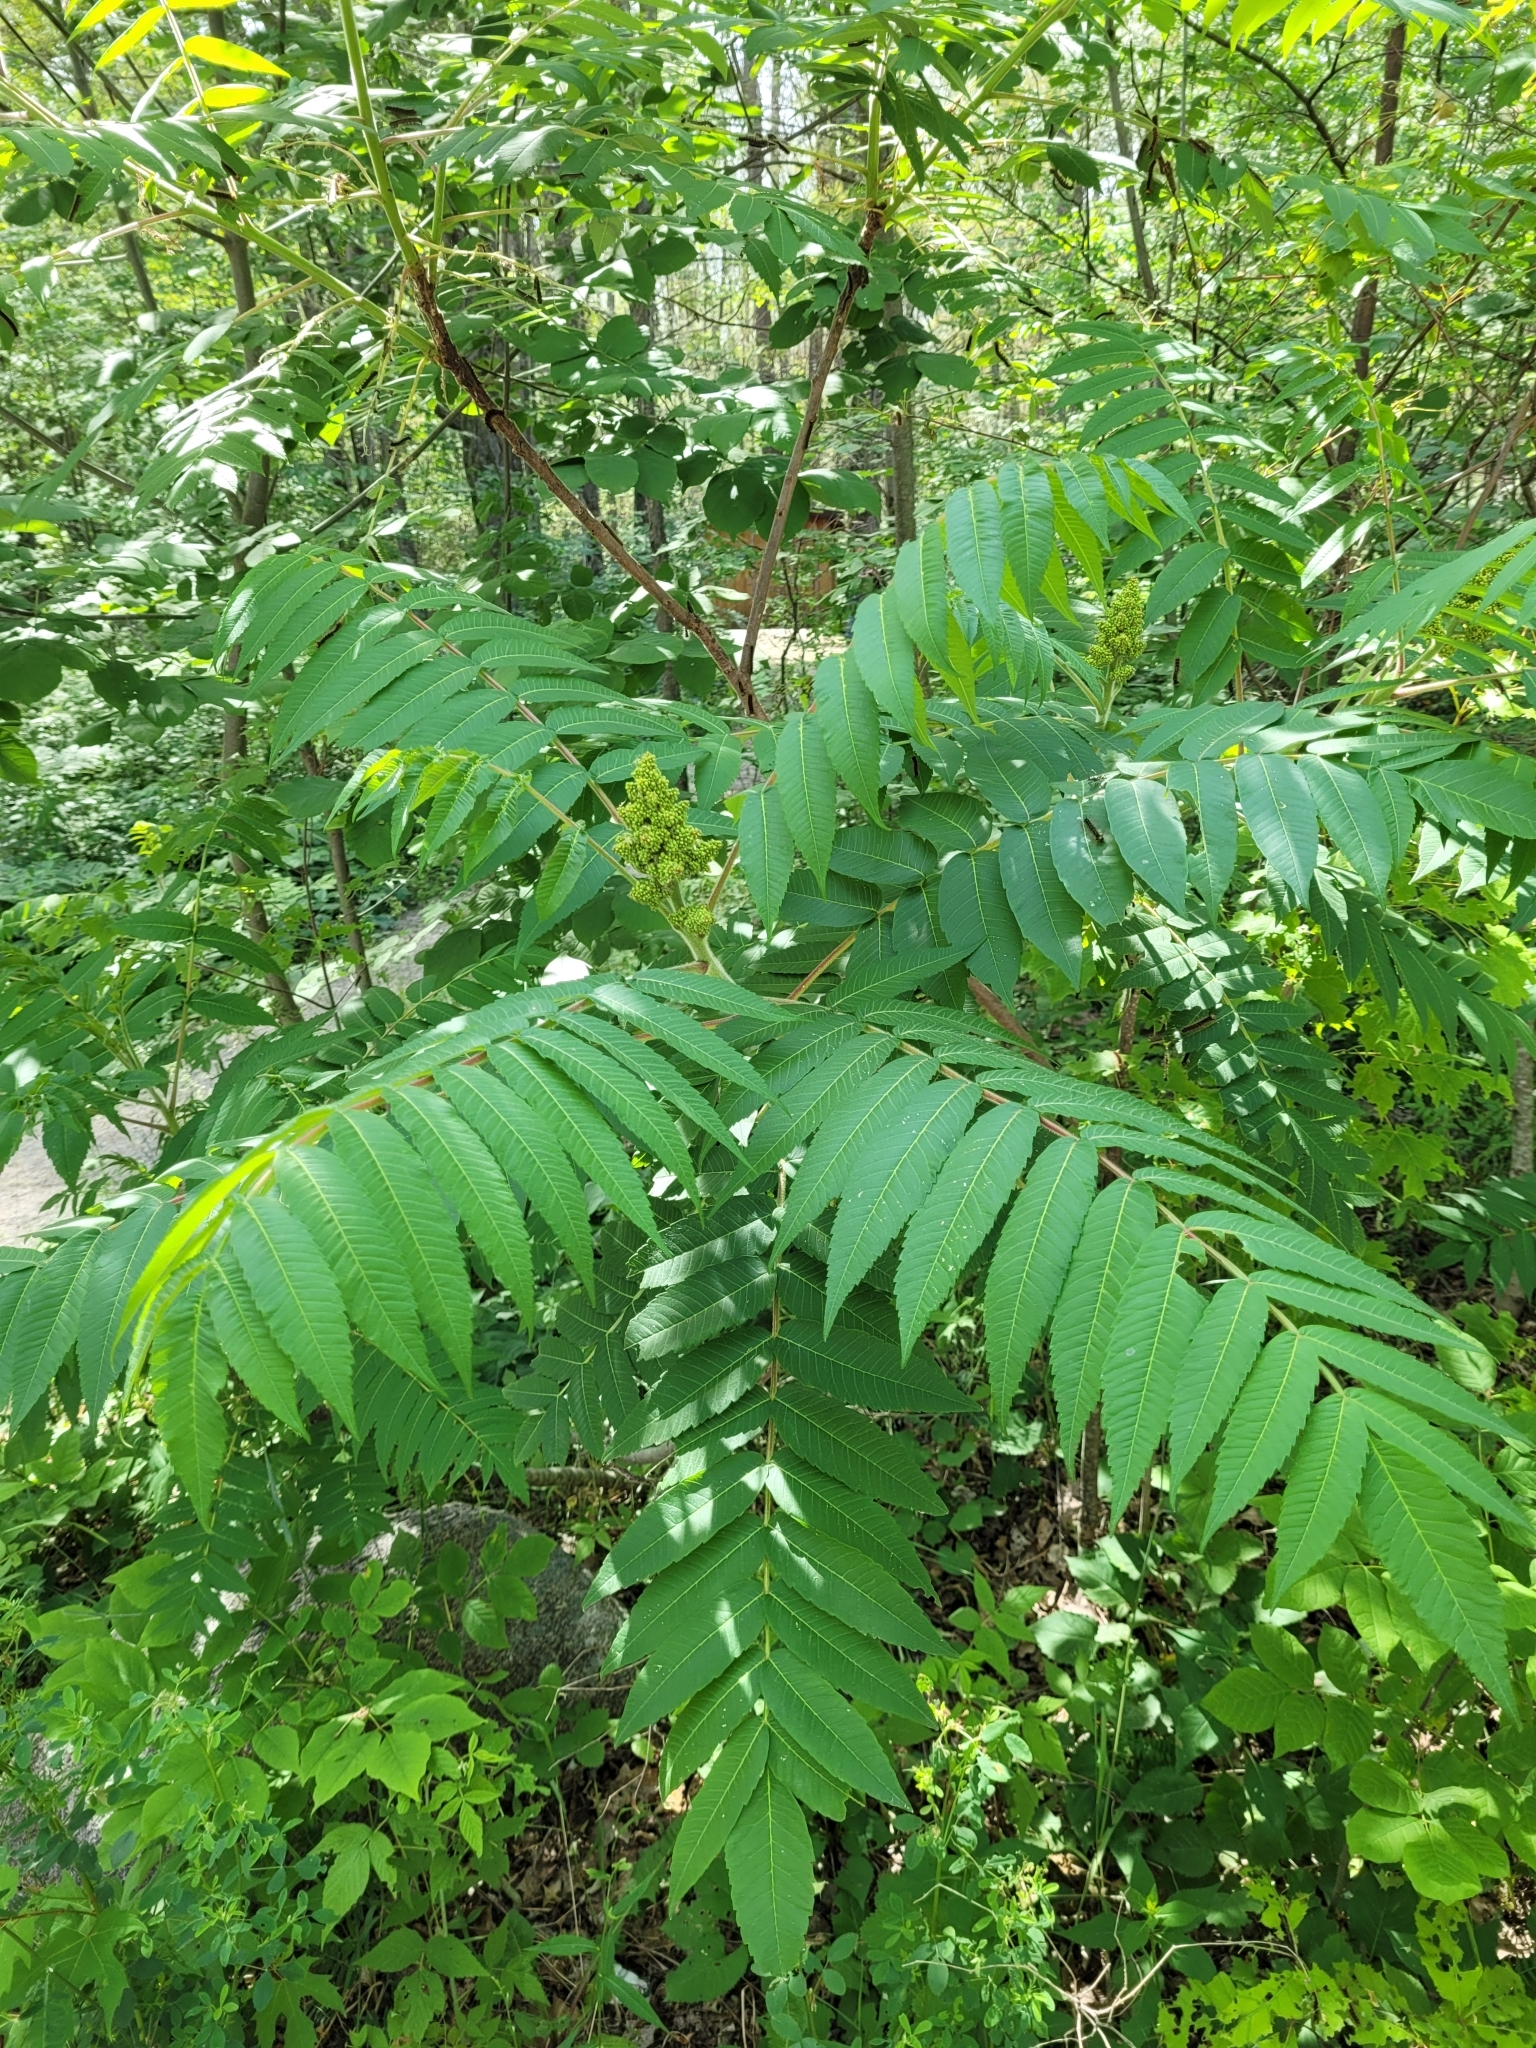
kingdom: Plantae
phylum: Tracheophyta
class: Magnoliopsida
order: Sapindales
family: Anacardiaceae
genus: Rhus
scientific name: Rhus typhina
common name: Staghorn sumac
